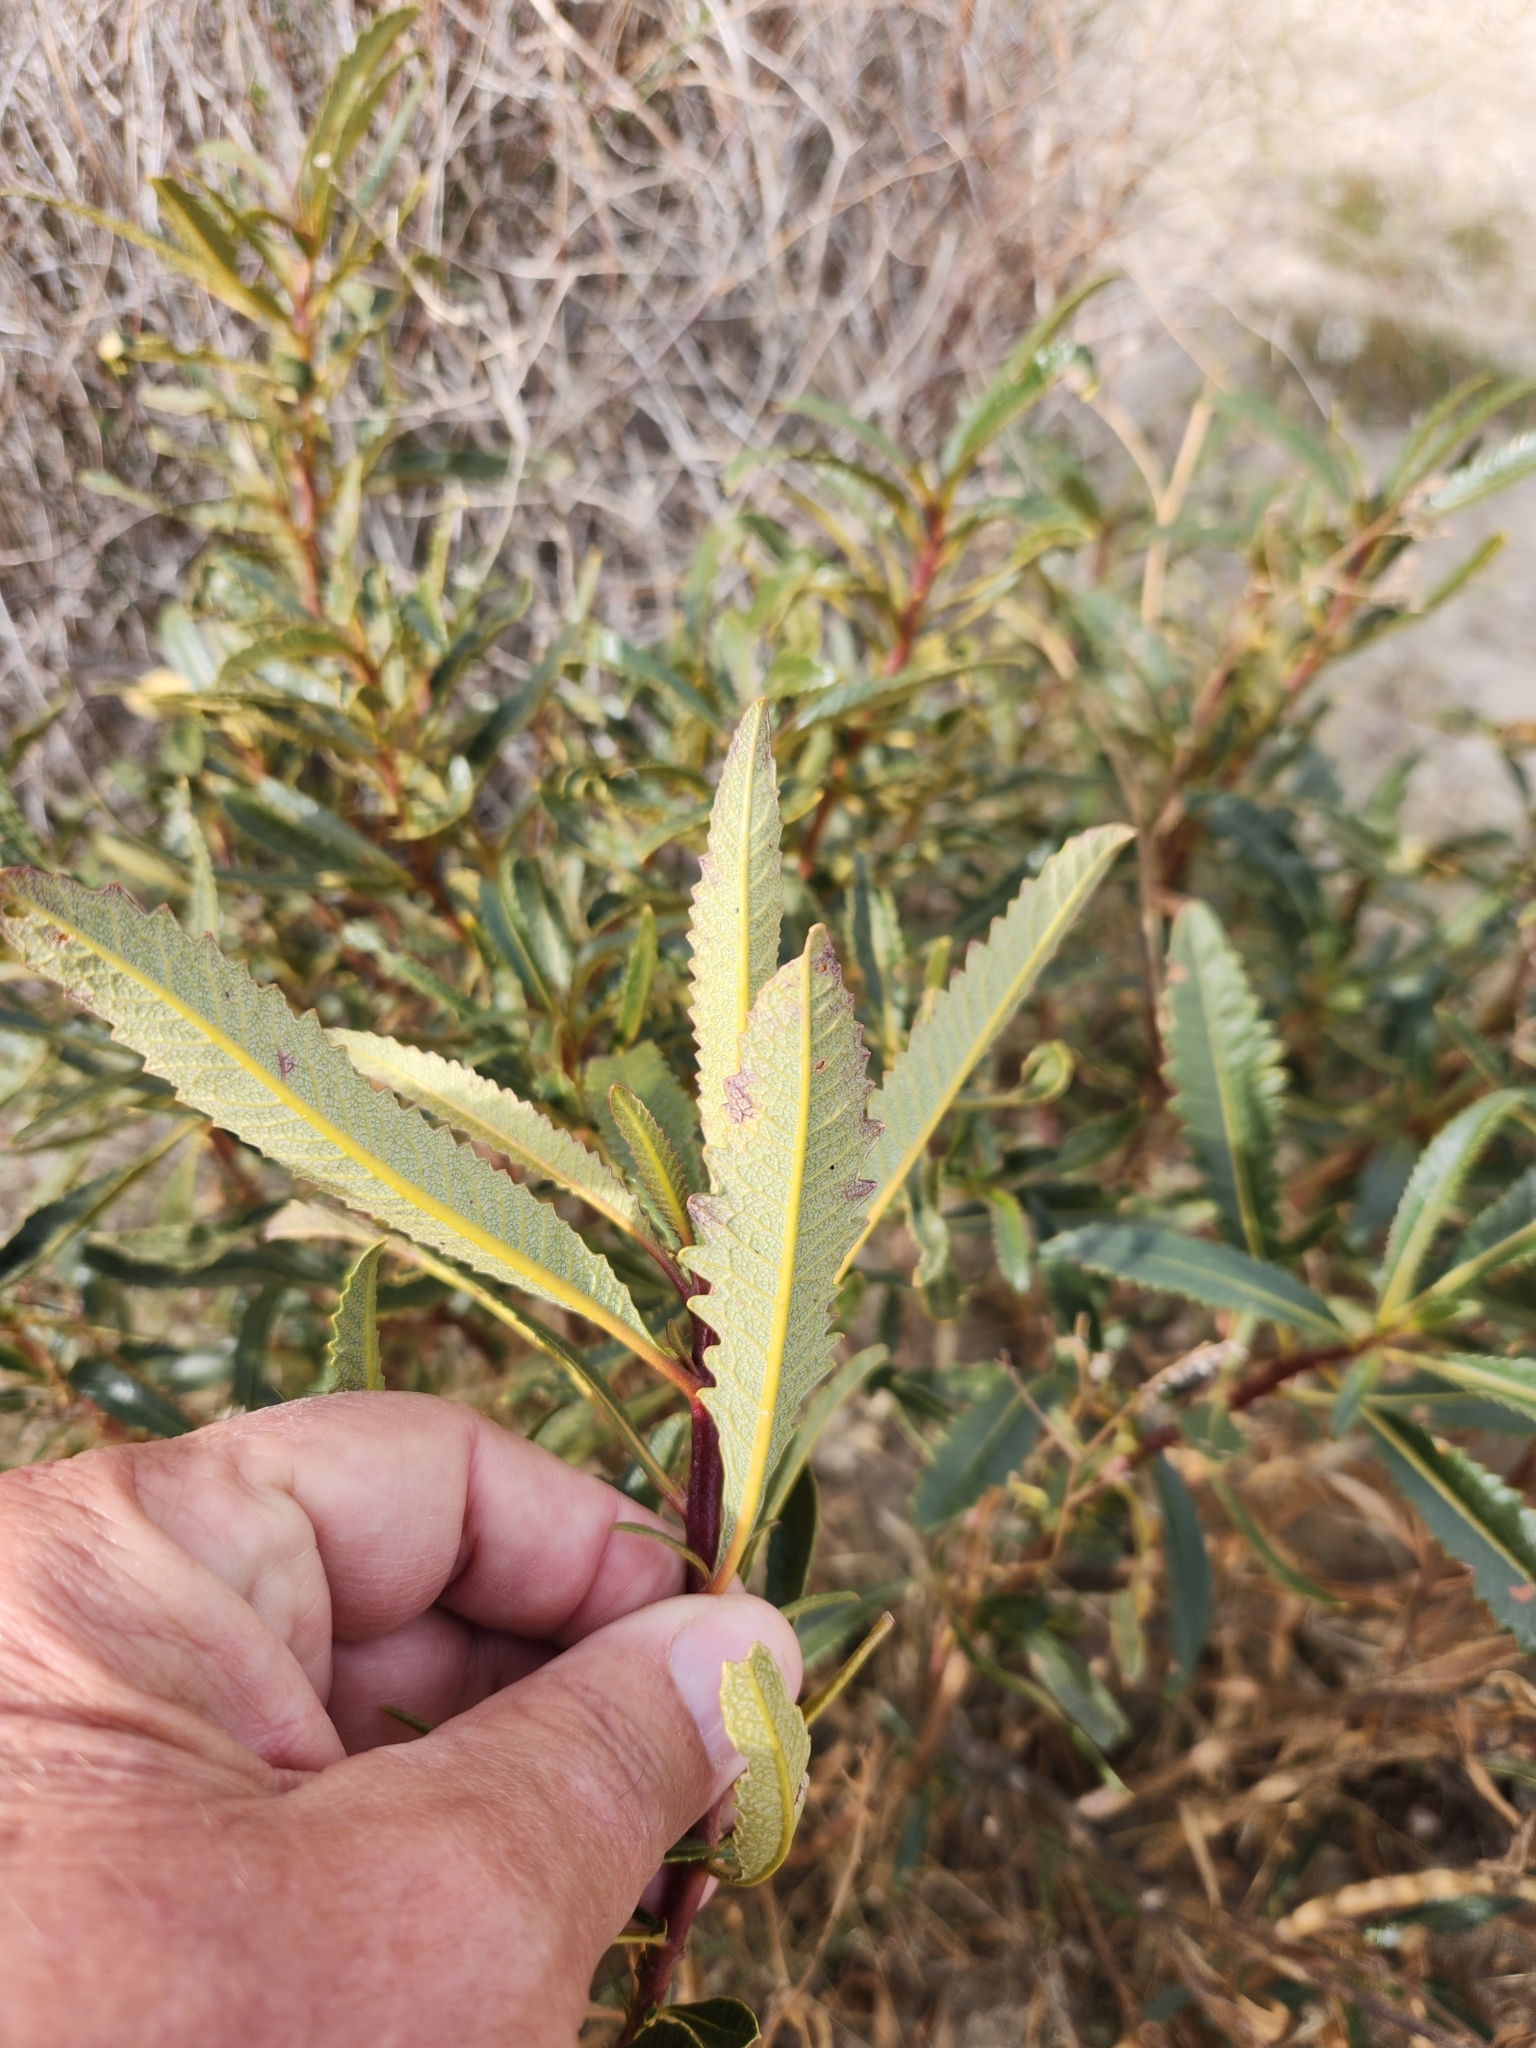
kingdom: Plantae
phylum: Tracheophyta
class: Magnoliopsida
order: Boraginales
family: Namaceae
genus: Eriodictyon
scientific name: Eriodictyon trichocalyx
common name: Hairy yerba-santa
